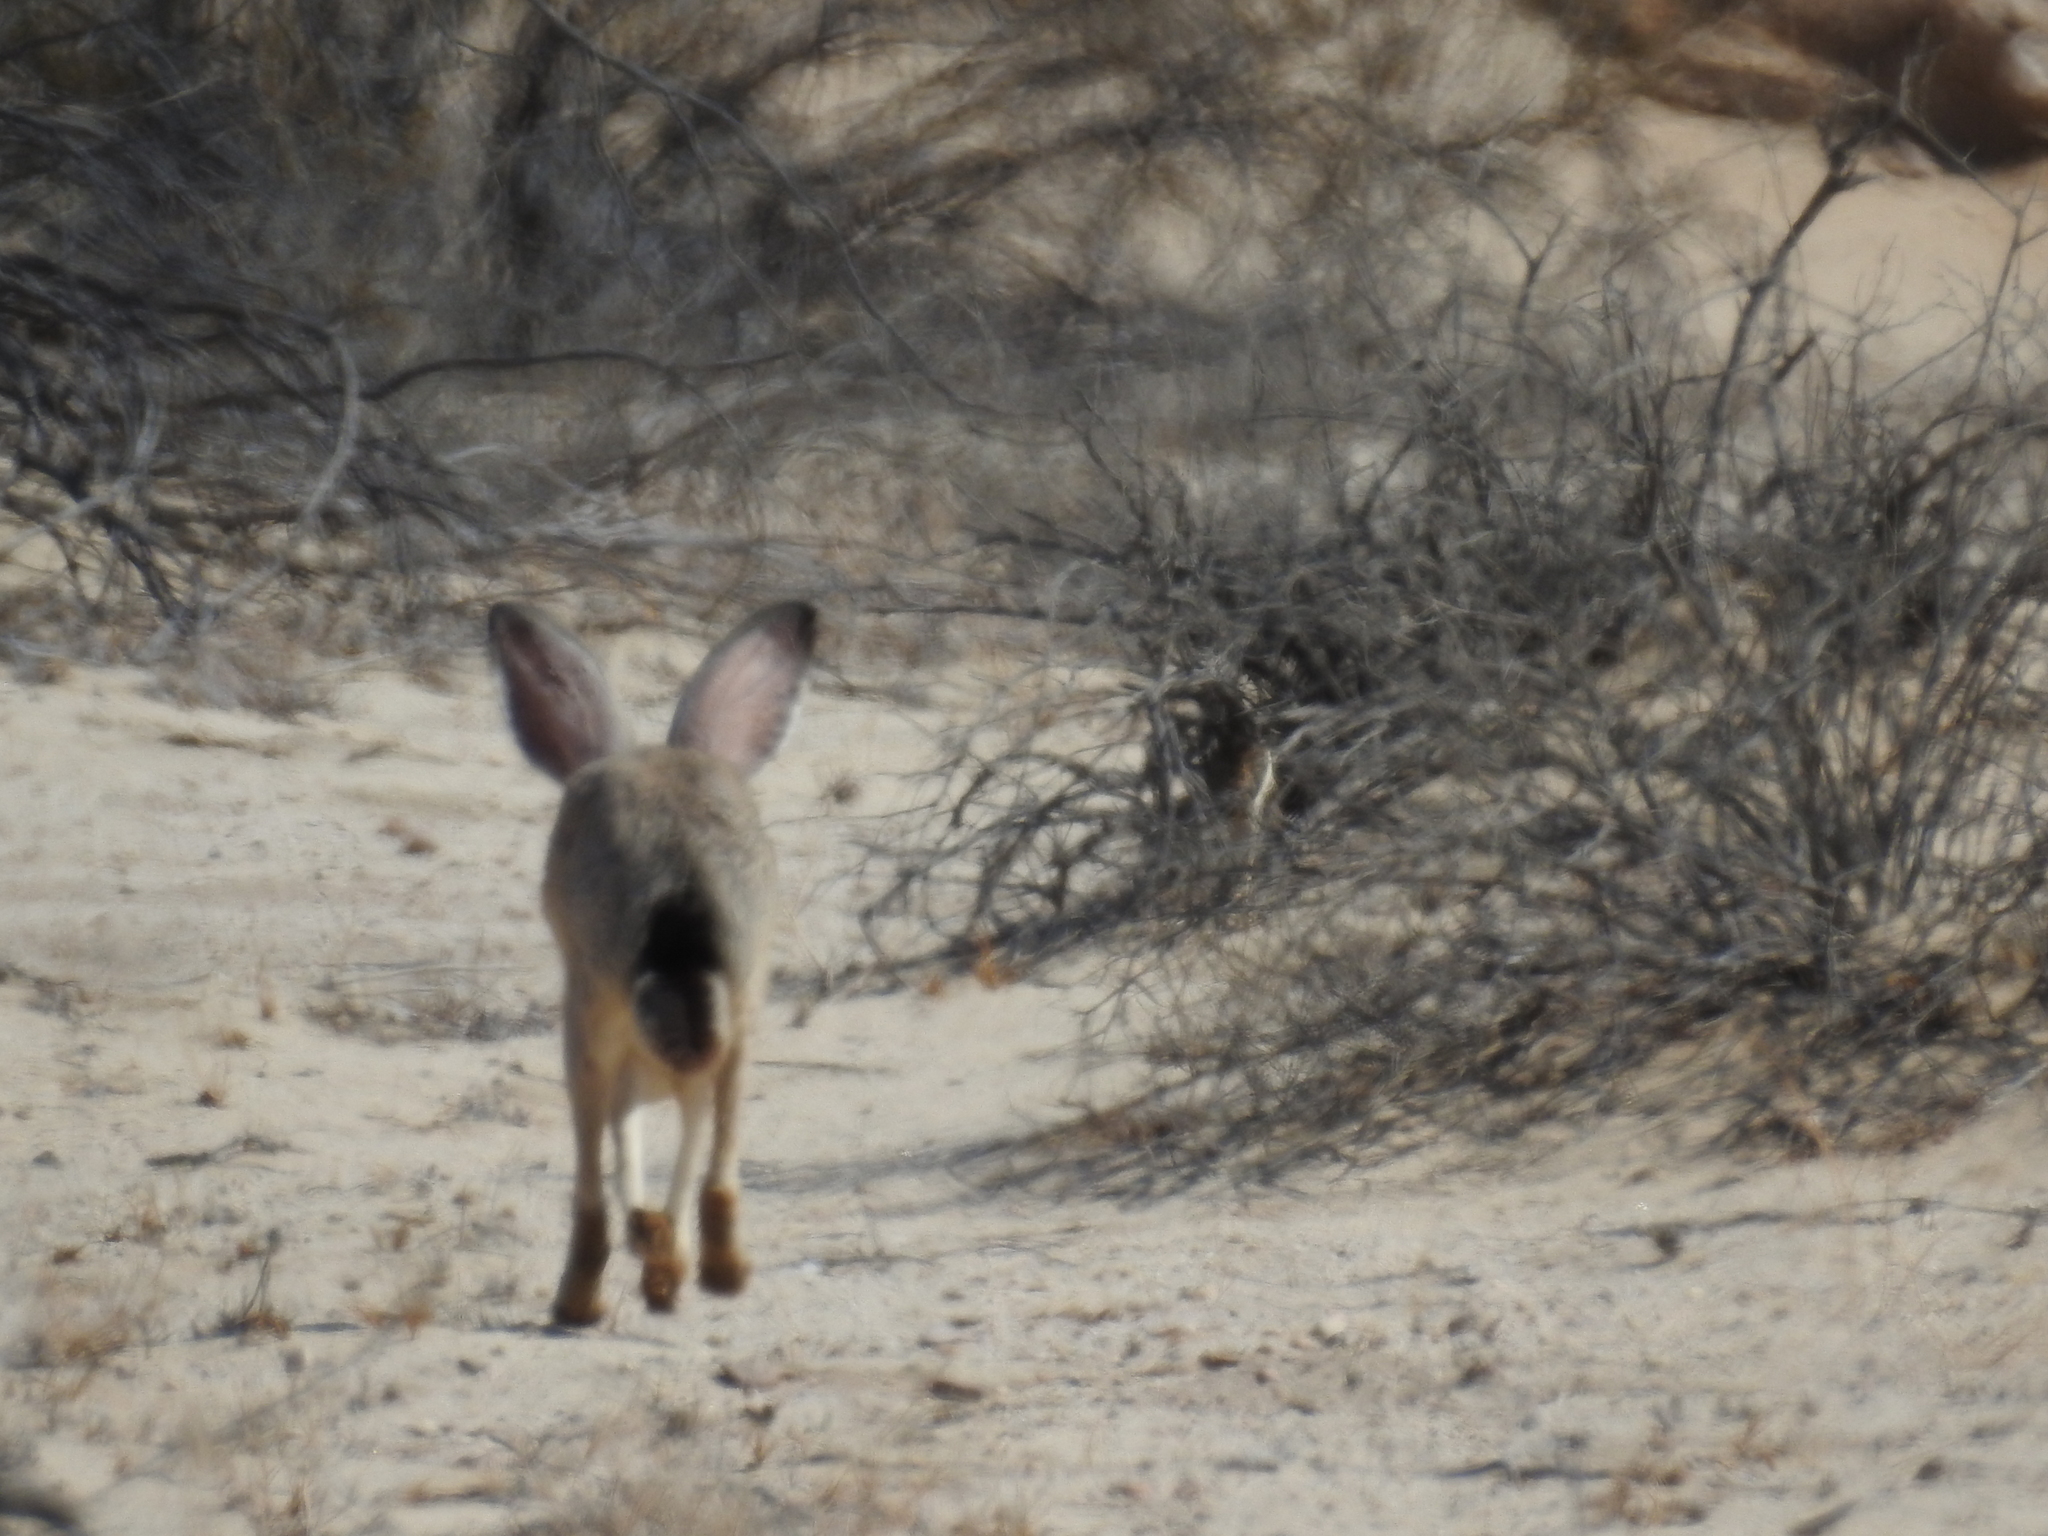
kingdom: Animalia
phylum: Chordata
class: Mammalia
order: Lagomorpha
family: Leporidae
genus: Lepus
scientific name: Lepus californicus
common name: Black-tailed jackrabbit
